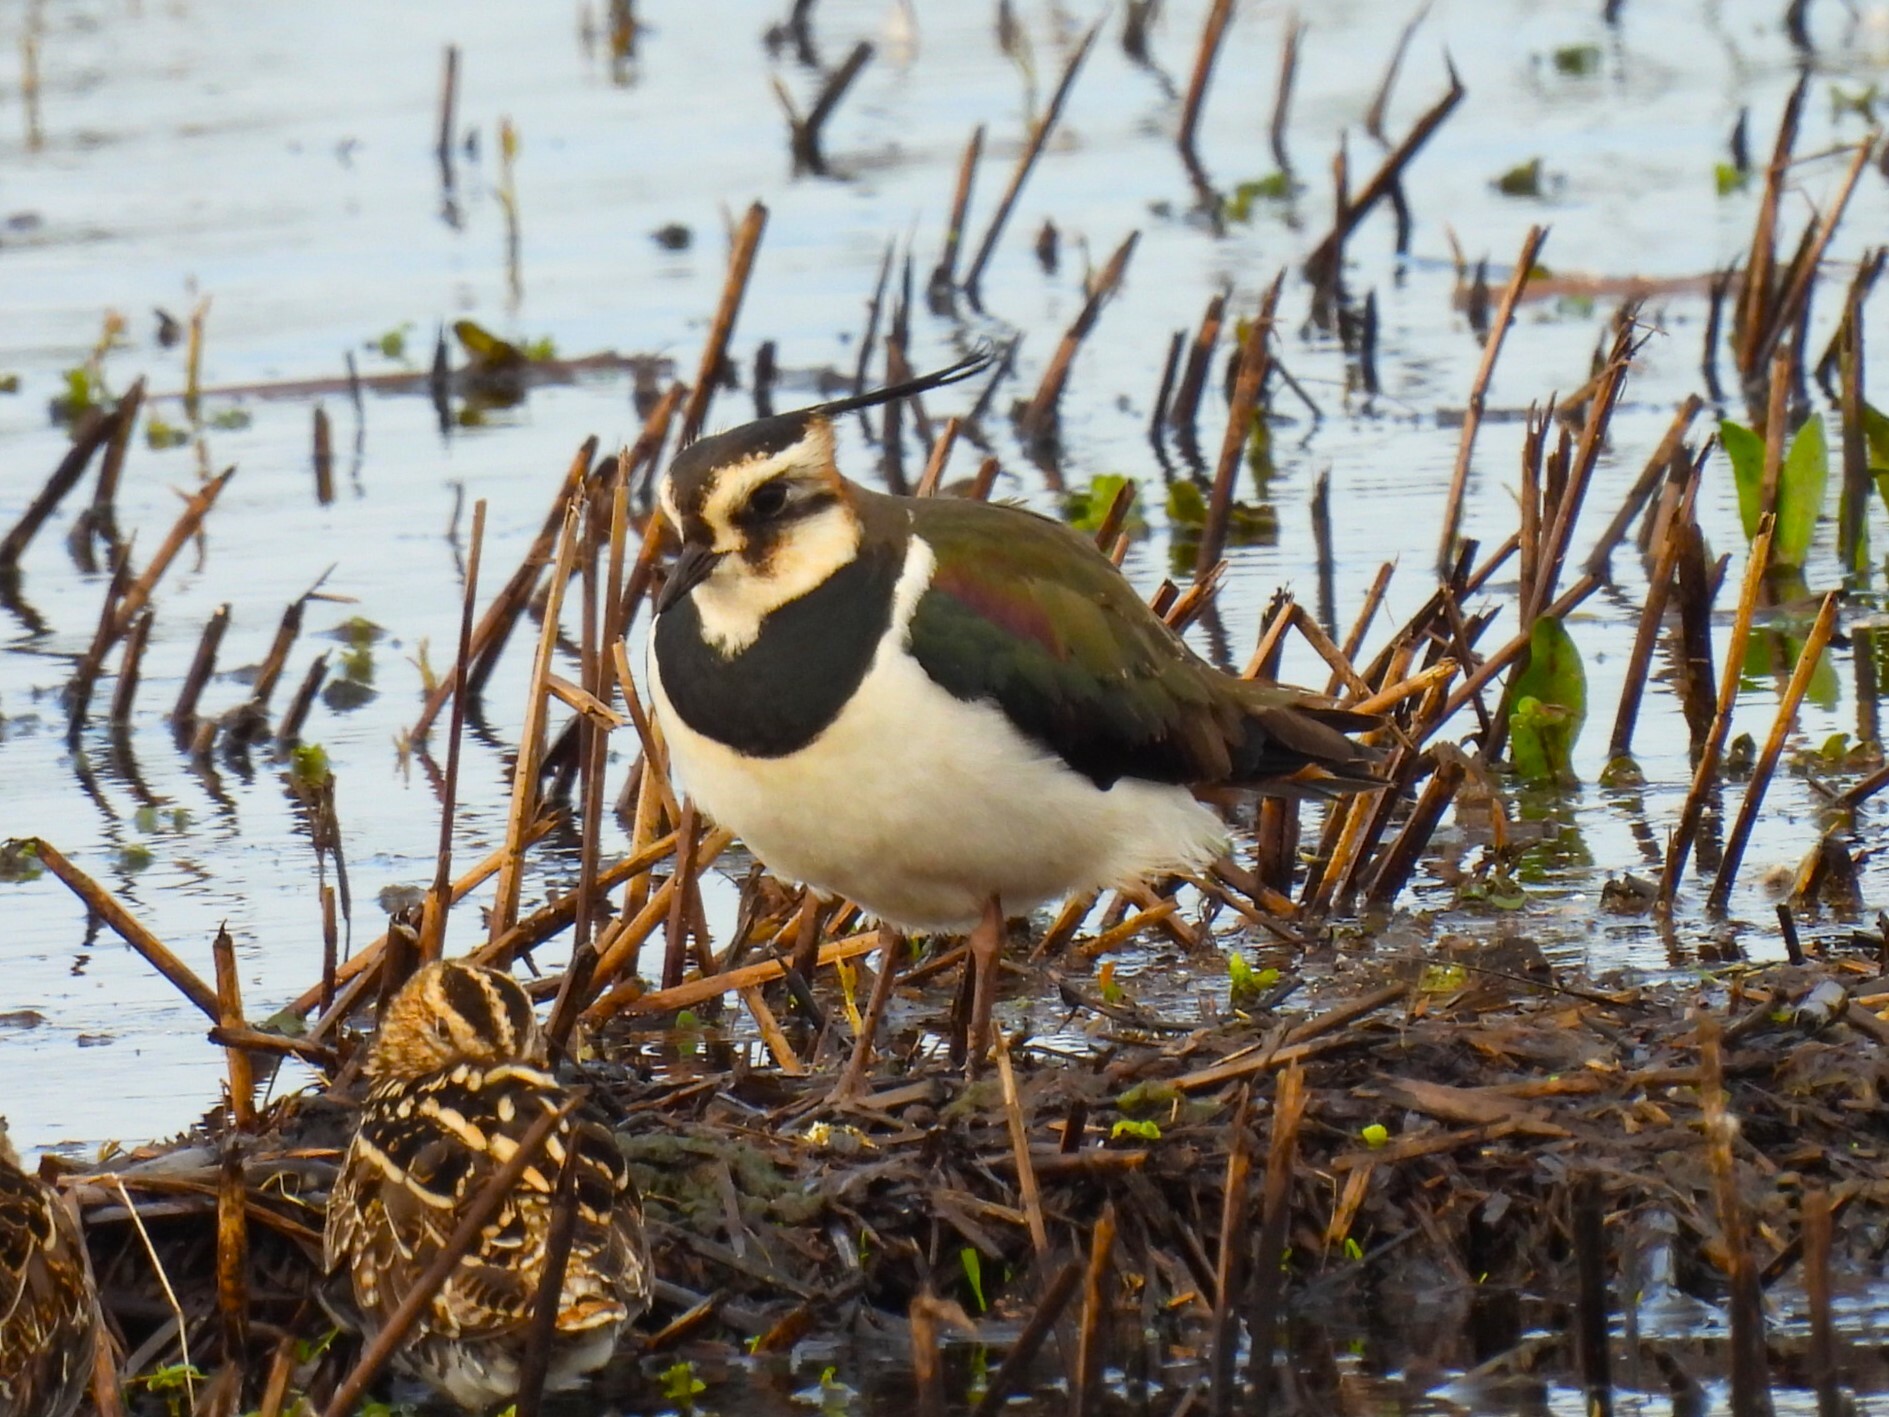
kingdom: Animalia
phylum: Chordata
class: Aves
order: Charadriiformes
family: Charadriidae
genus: Vanellus
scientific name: Vanellus vanellus
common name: Northern lapwing
